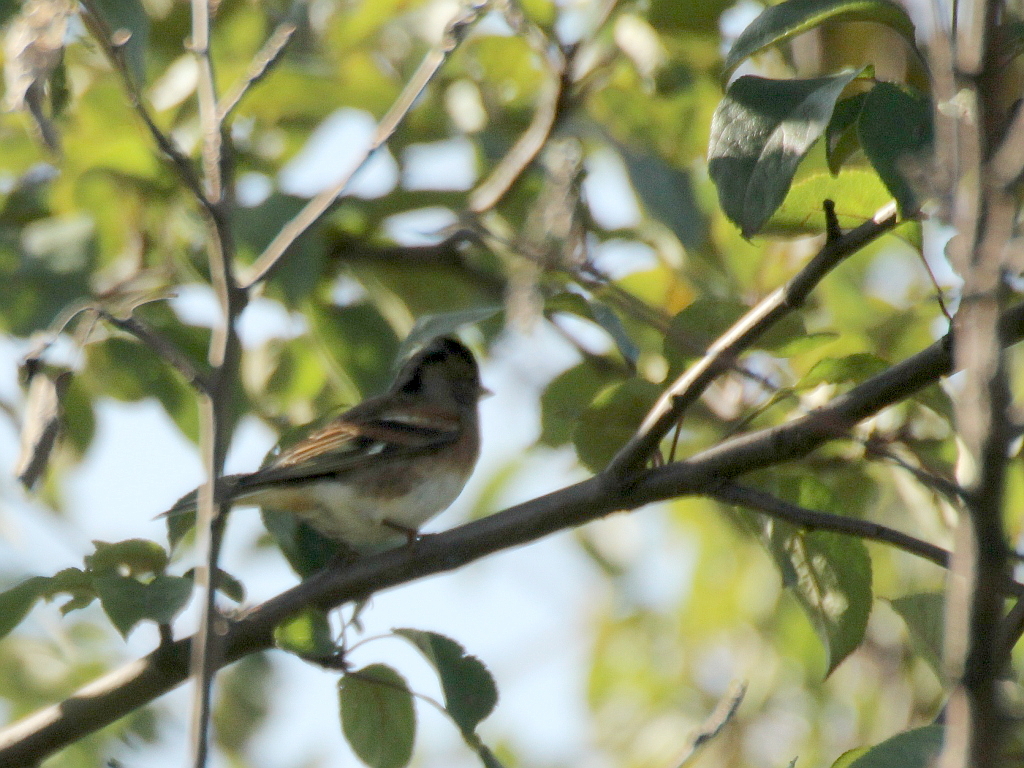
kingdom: Animalia
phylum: Chordata
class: Aves
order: Passeriformes
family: Fringillidae
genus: Fringilla
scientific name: Fringilla montifringilla
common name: Brambling
